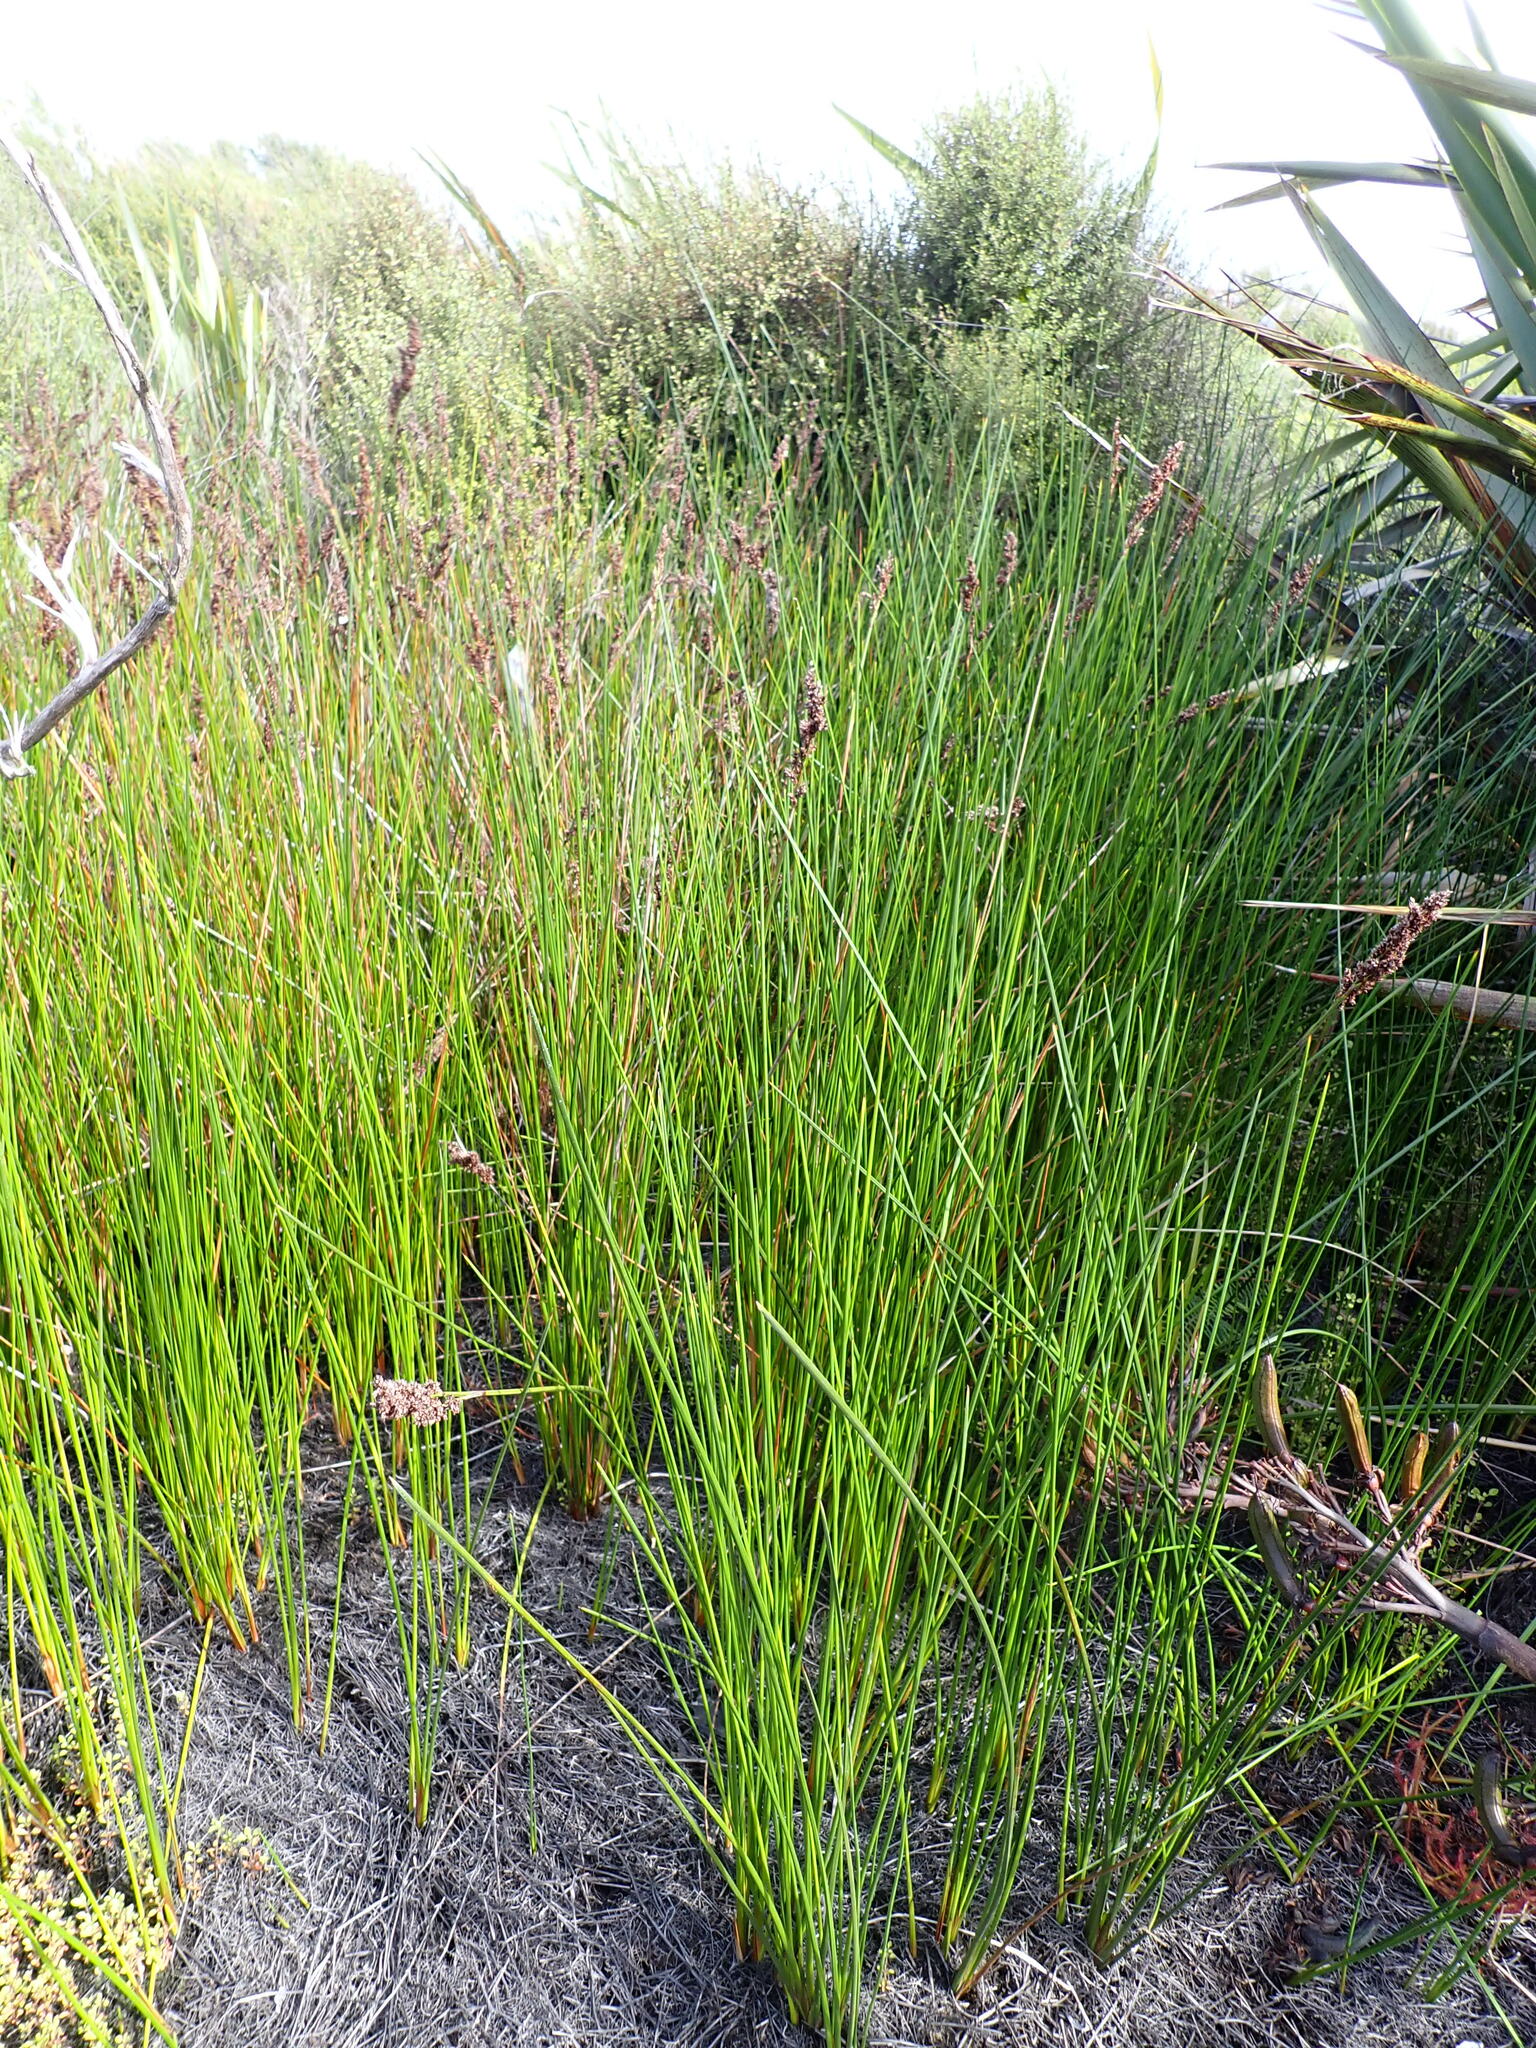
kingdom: Plantae
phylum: Tracheophyta
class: Liliopsida
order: Poales
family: Cyperaceae
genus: Machaerina
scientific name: Machaerina teretifolia
